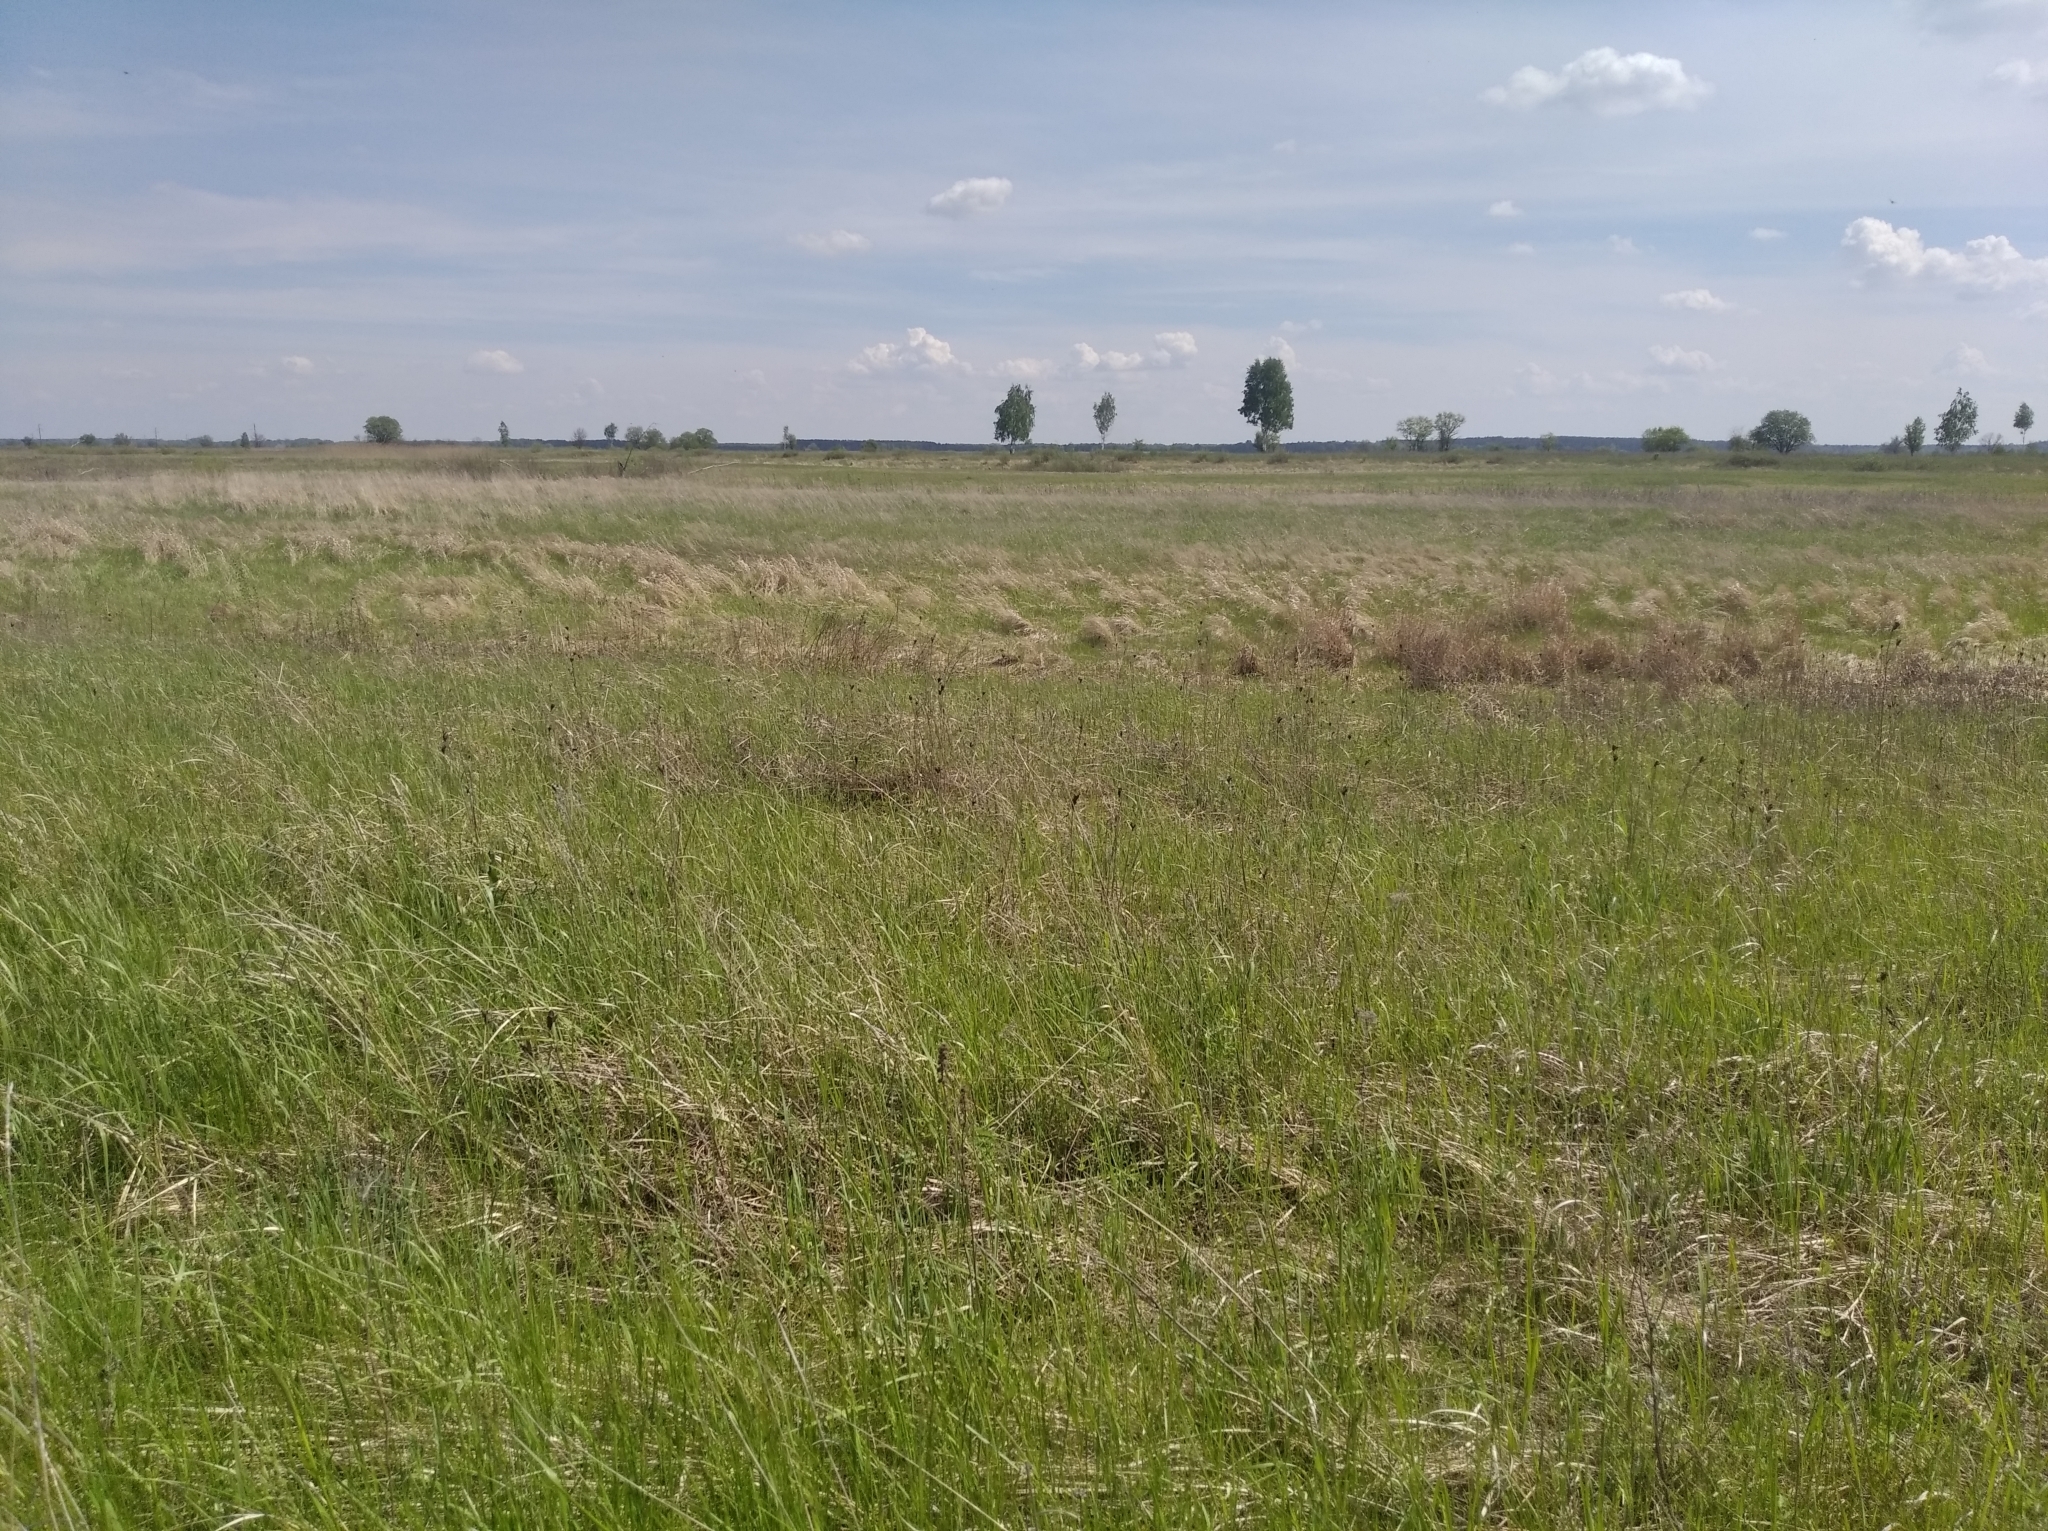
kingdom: Plantae
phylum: Tracheophyta
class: Liliopsida
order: Asparagales
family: Iridaceae
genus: Iris
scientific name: Iris sibirica
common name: Siberian iris
